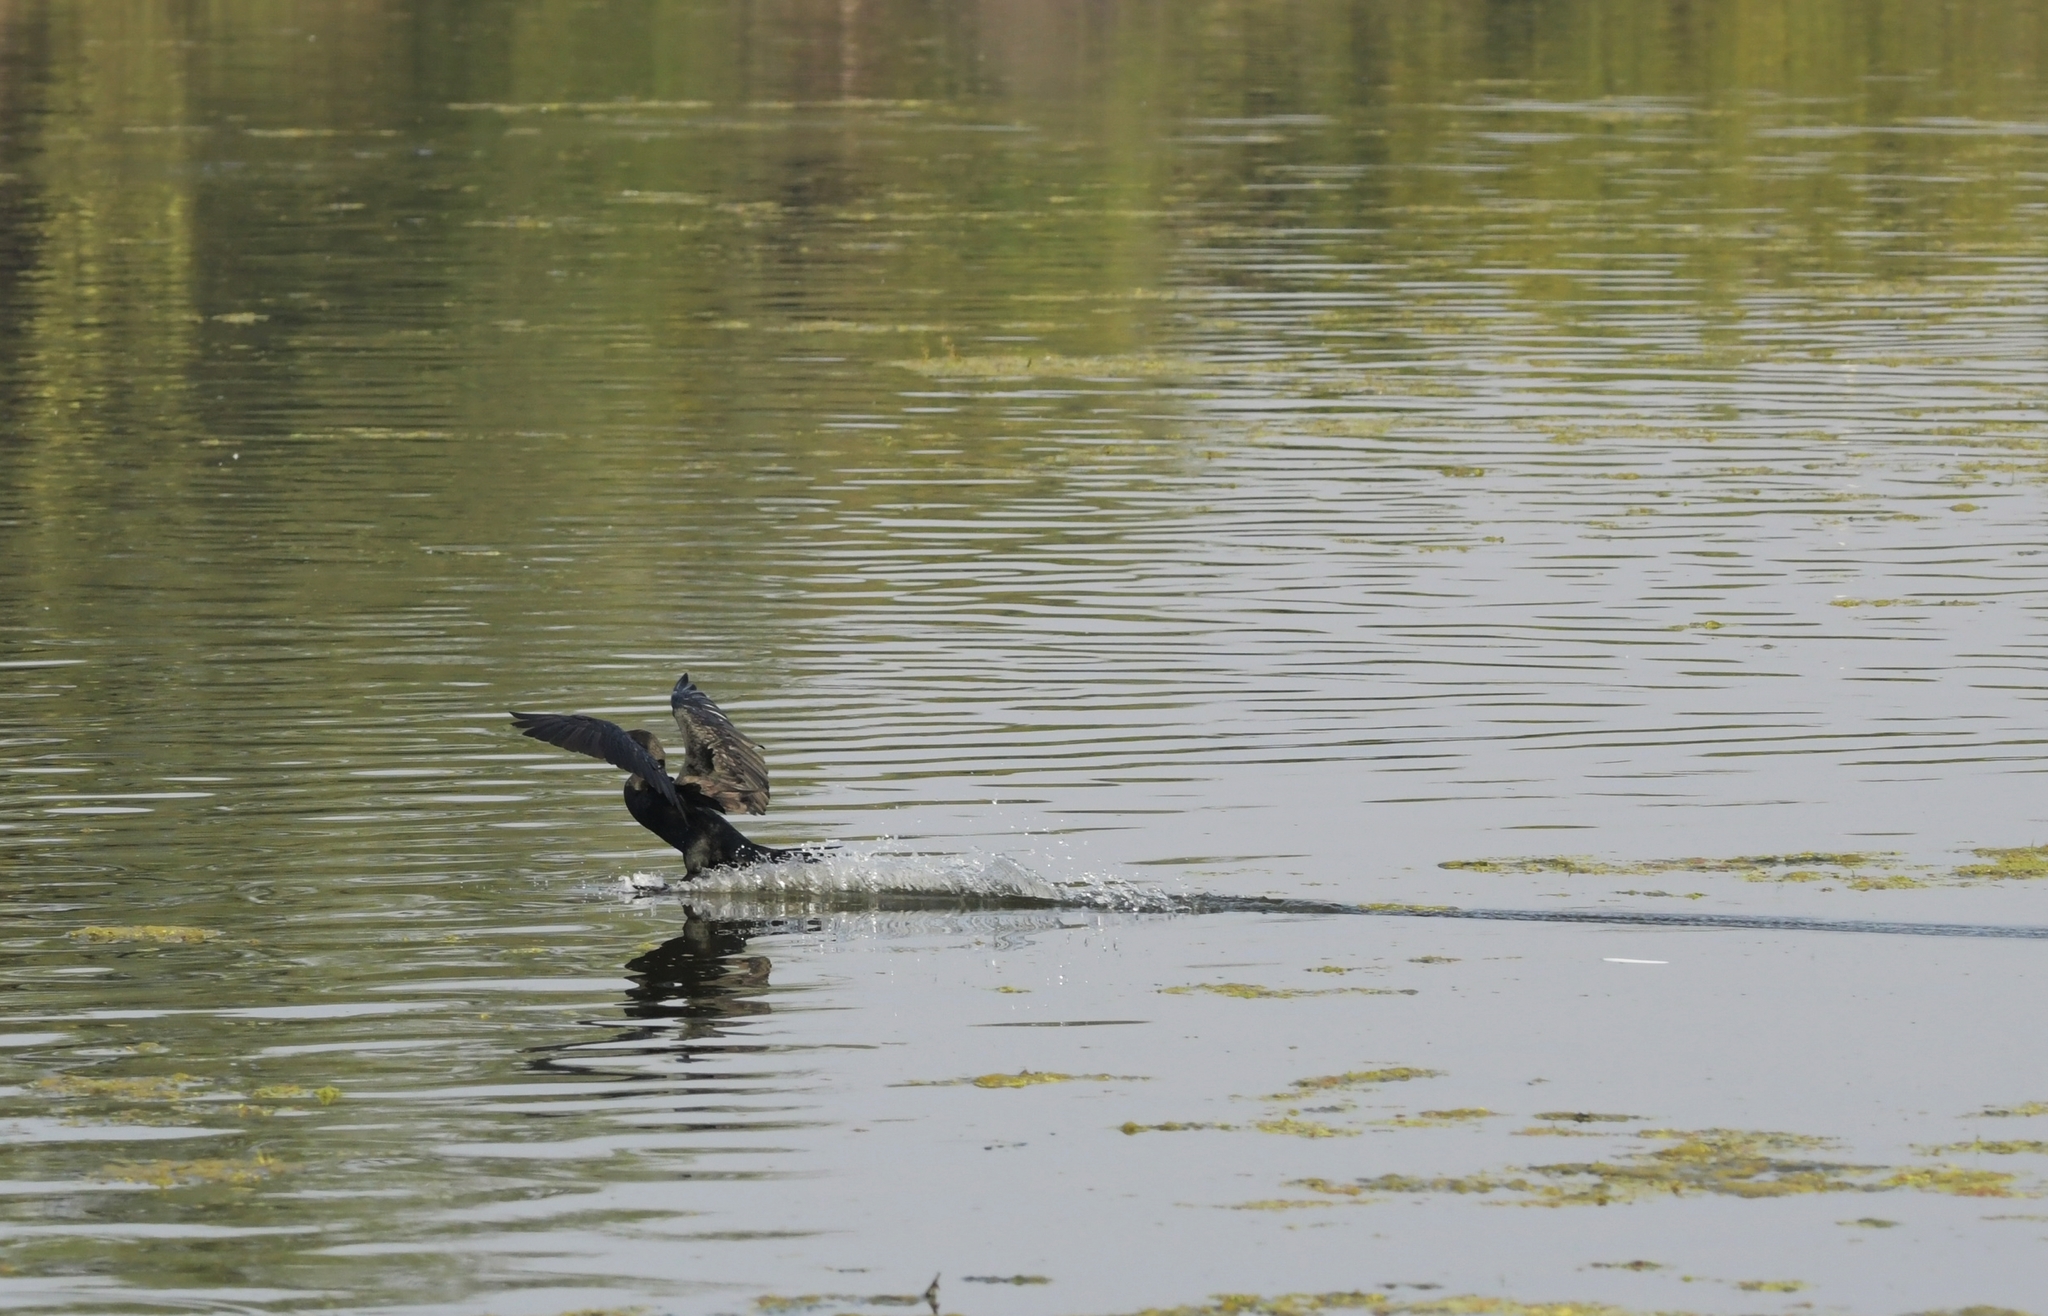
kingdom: Animalia
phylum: Chordata
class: Aves
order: Suliformes
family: Phalacrocoracidae
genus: Phalacrocorax
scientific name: Phalacrocorax fuscicollis
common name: Indian cormorant
